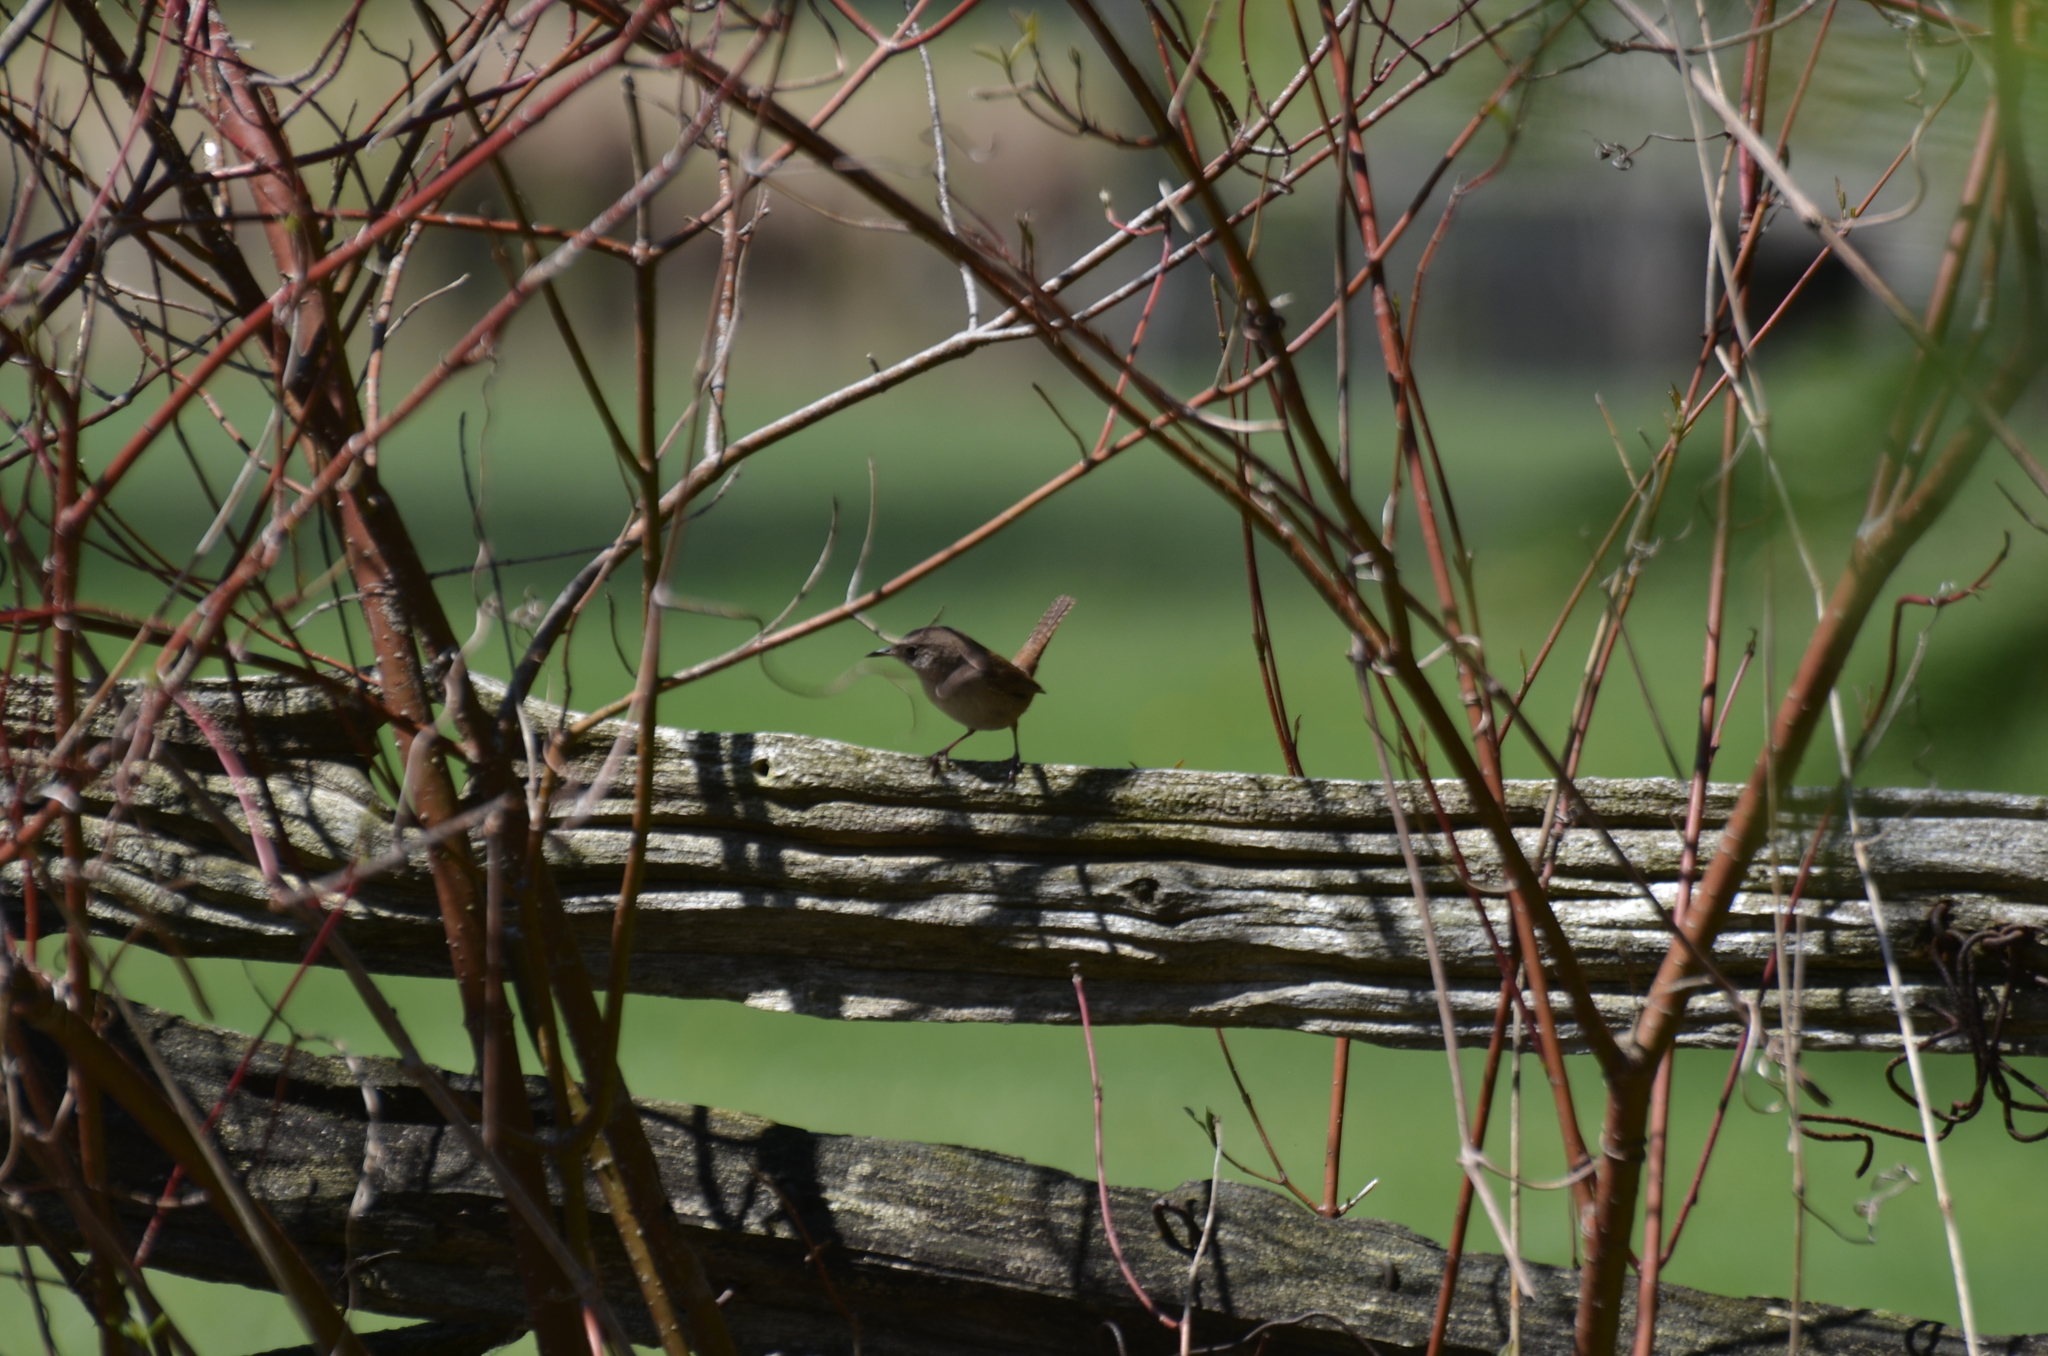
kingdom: Animalia
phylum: Chordata
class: Aves
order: Passeriformes
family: Troglodytidae
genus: Troglodytes
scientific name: Troglodytes aedon
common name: House wren
